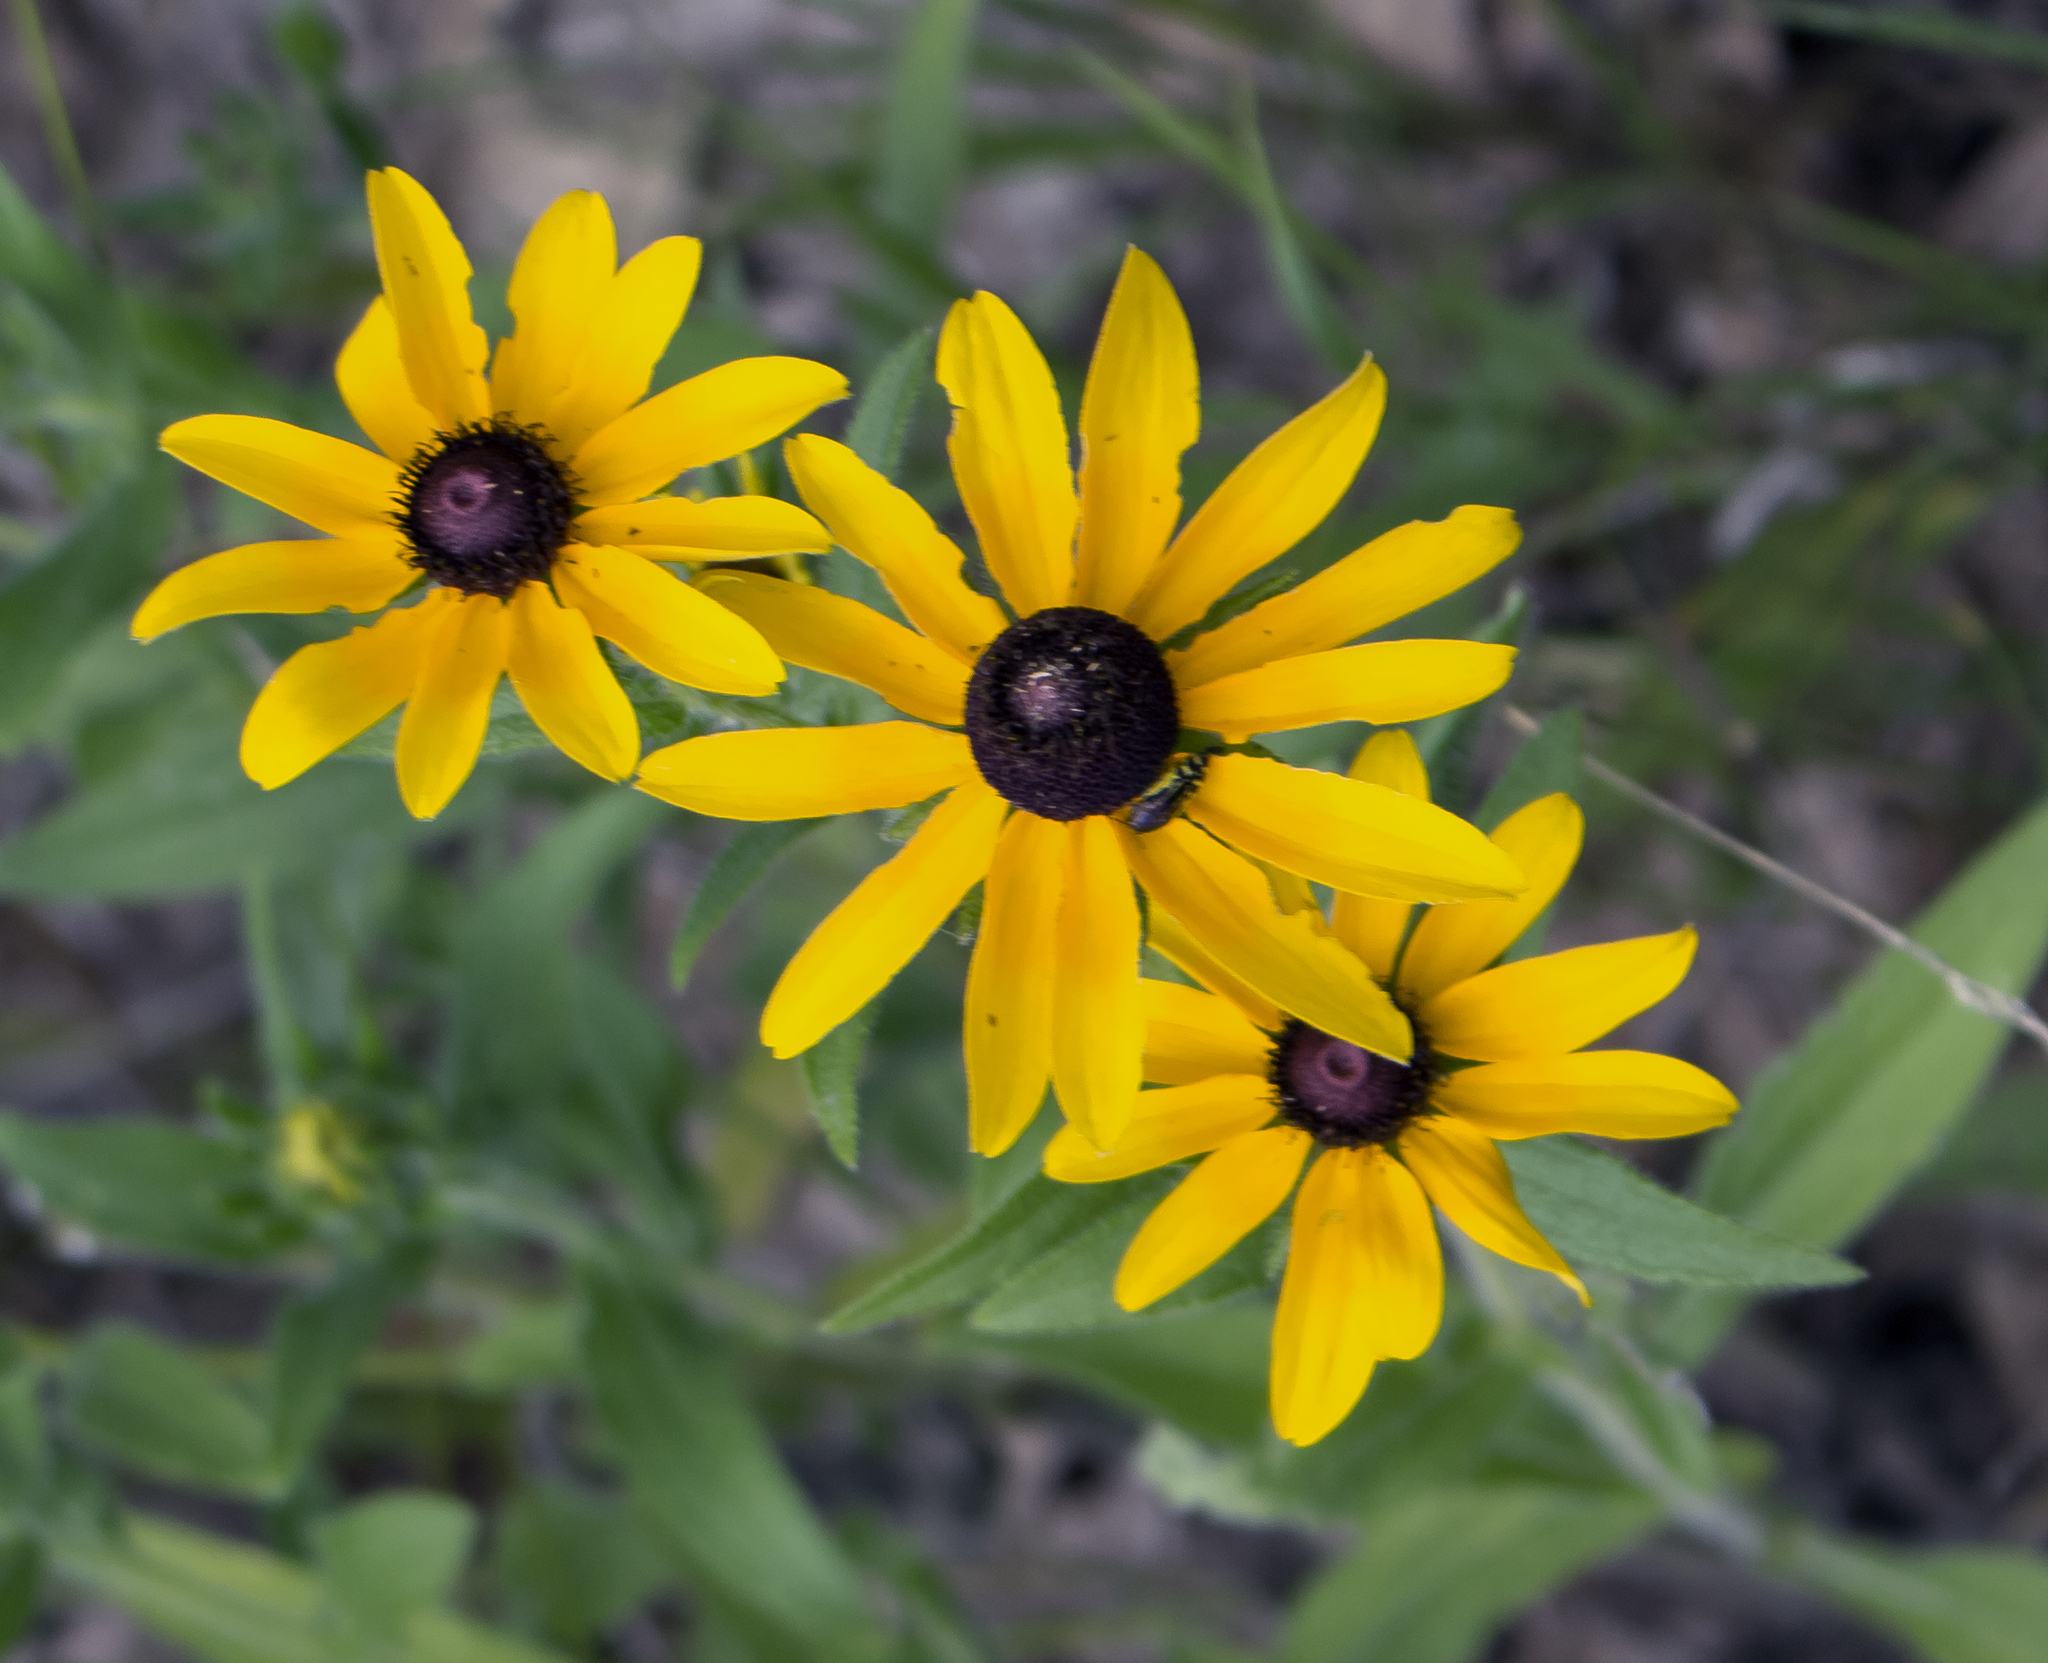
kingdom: Plantae
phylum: Tracheophyta
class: Magnoliopsida
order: Asterales
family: Asteraceae
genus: Rudbeckia
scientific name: Rudbeckia hirta
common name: Black-eyed-susan
